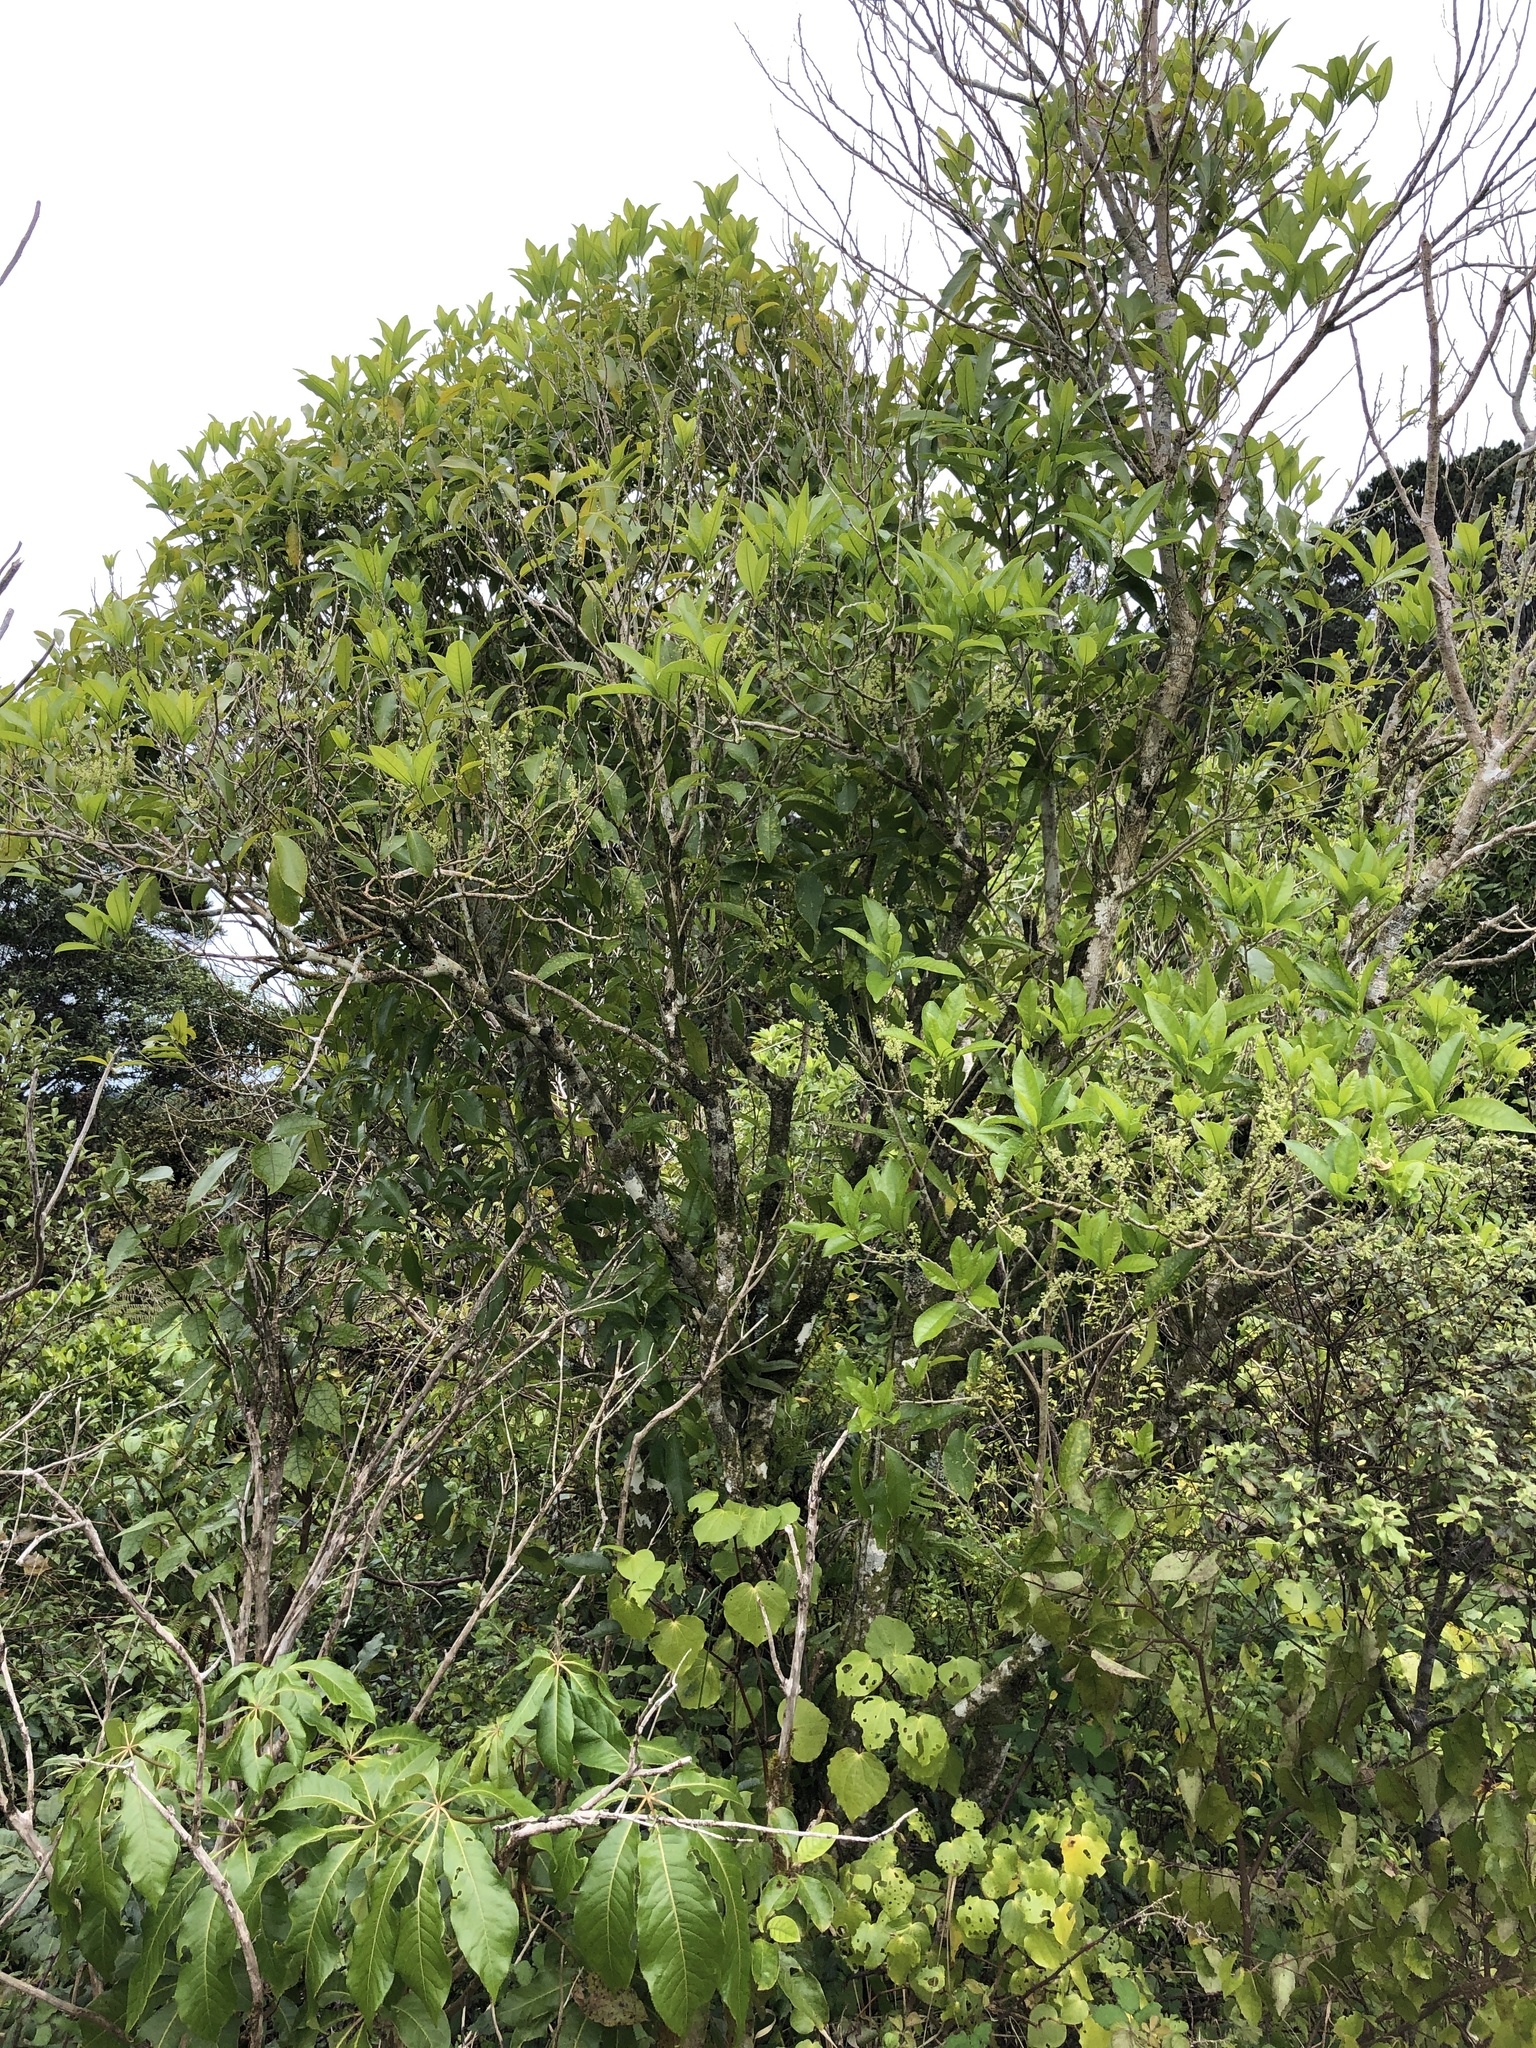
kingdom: Plantae
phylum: Tracheophyta
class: Magnoliopsida
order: Malpighiales
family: Violaceae
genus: Melicytus
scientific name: Melicytus ramiflorus
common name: Mahoe
